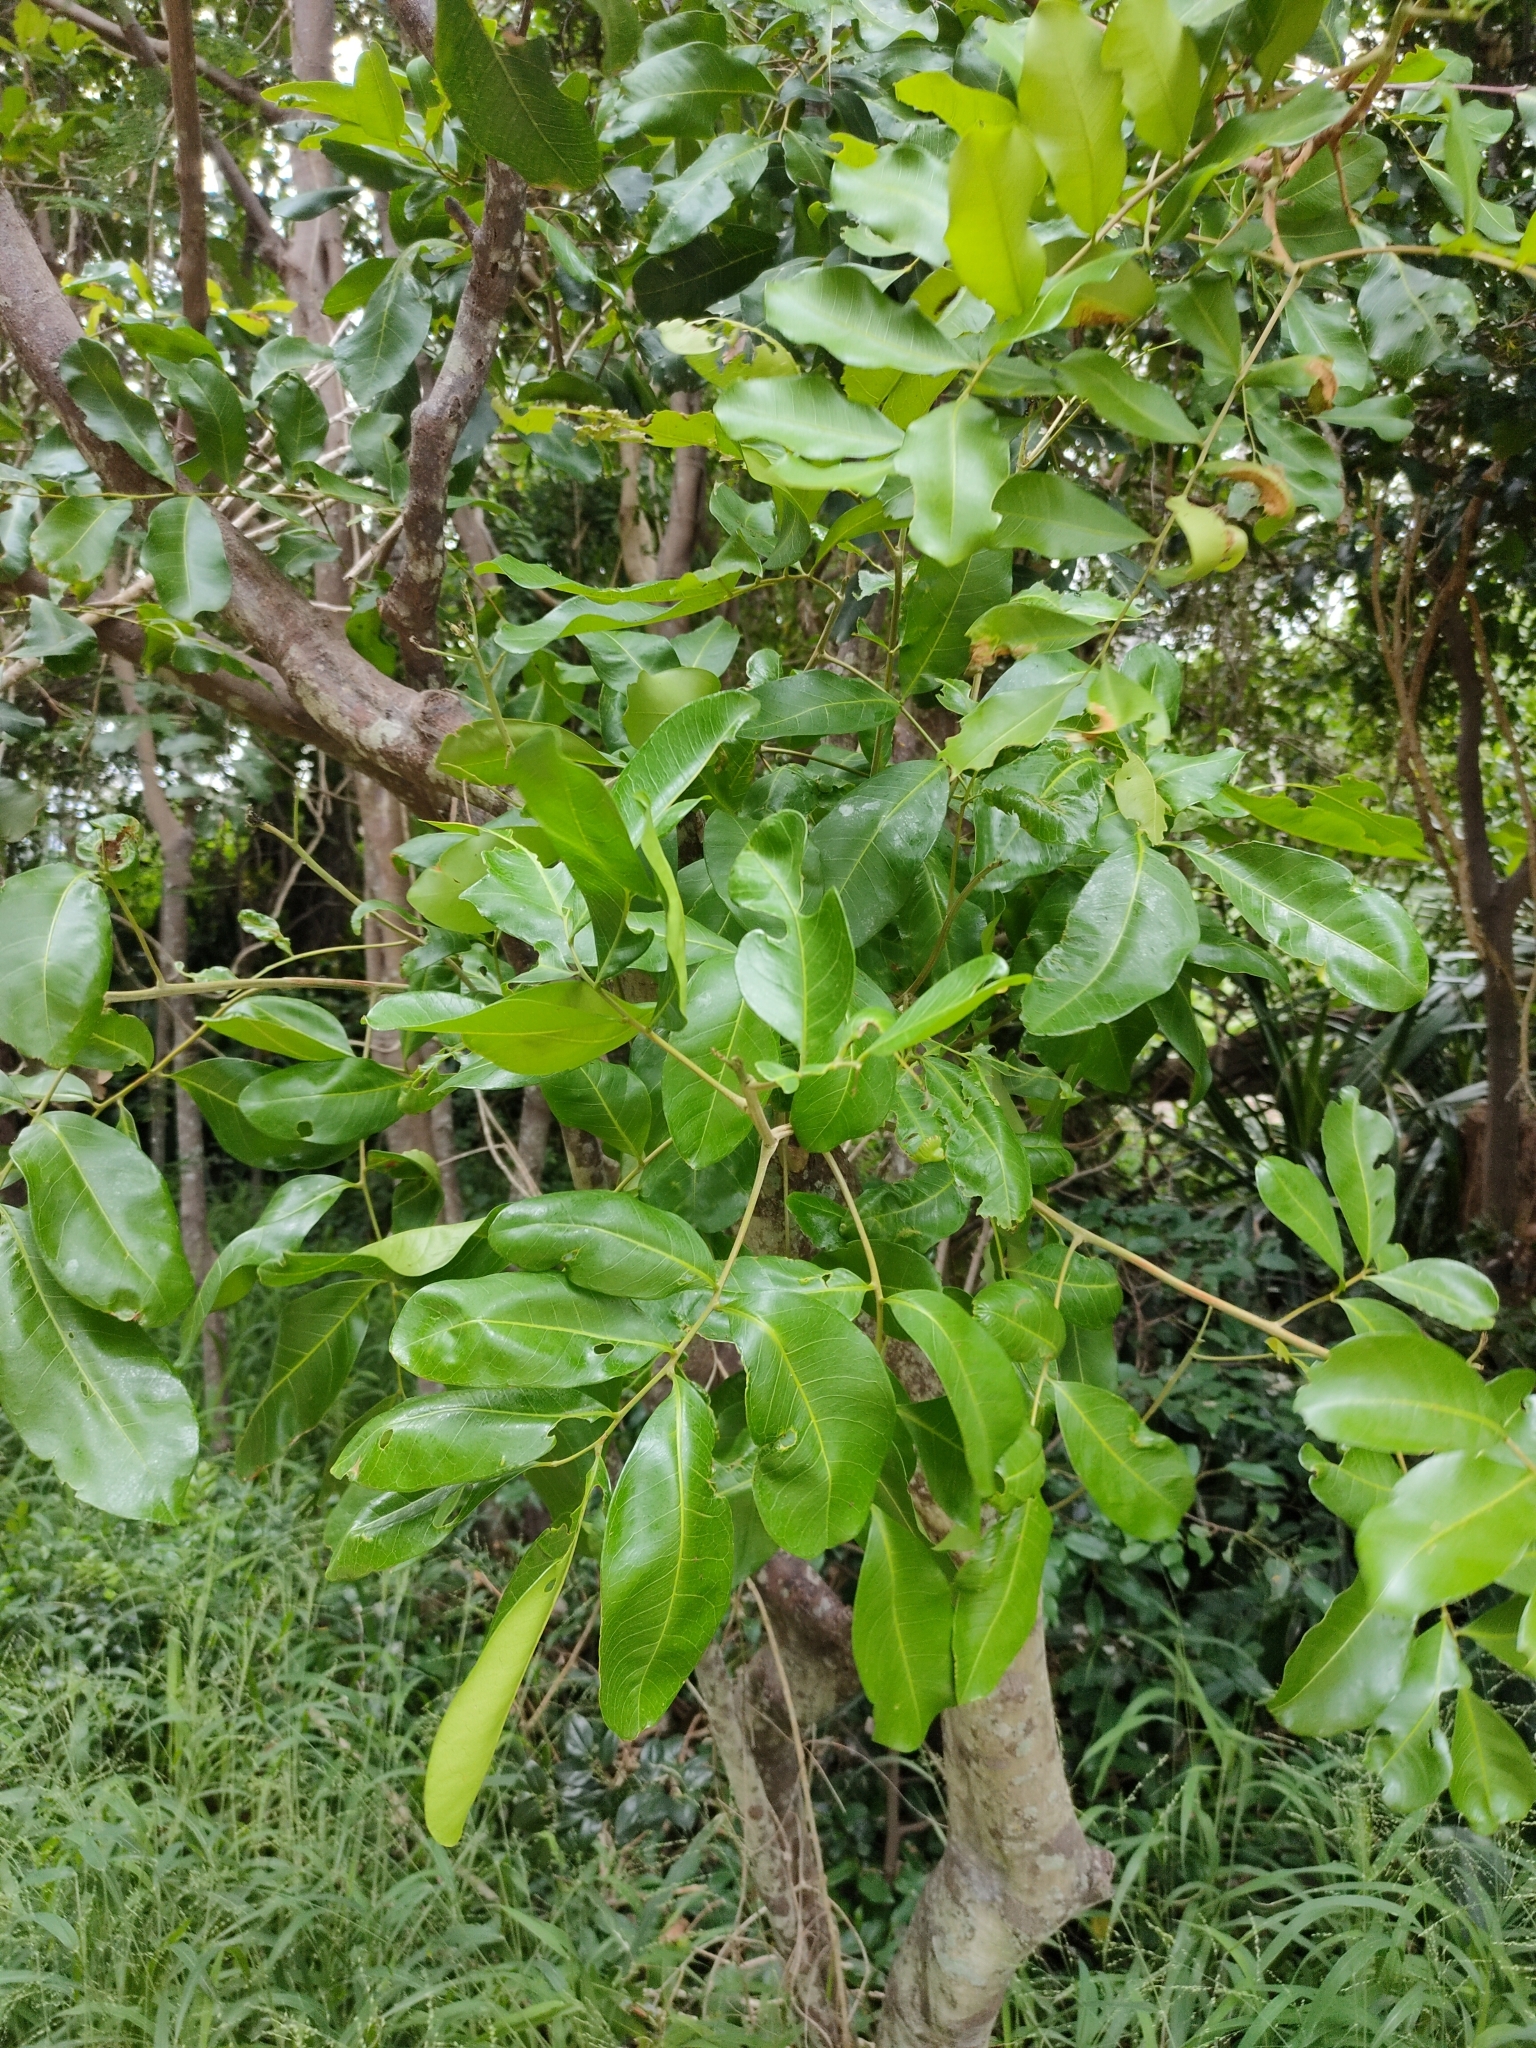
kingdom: Plantae
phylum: Tracheophyta
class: Magnoliopsida
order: Sapindales
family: Sapindaceae
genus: Cupaniopsis
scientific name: Cupaniopsis anacardioides
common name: Carrotwood
